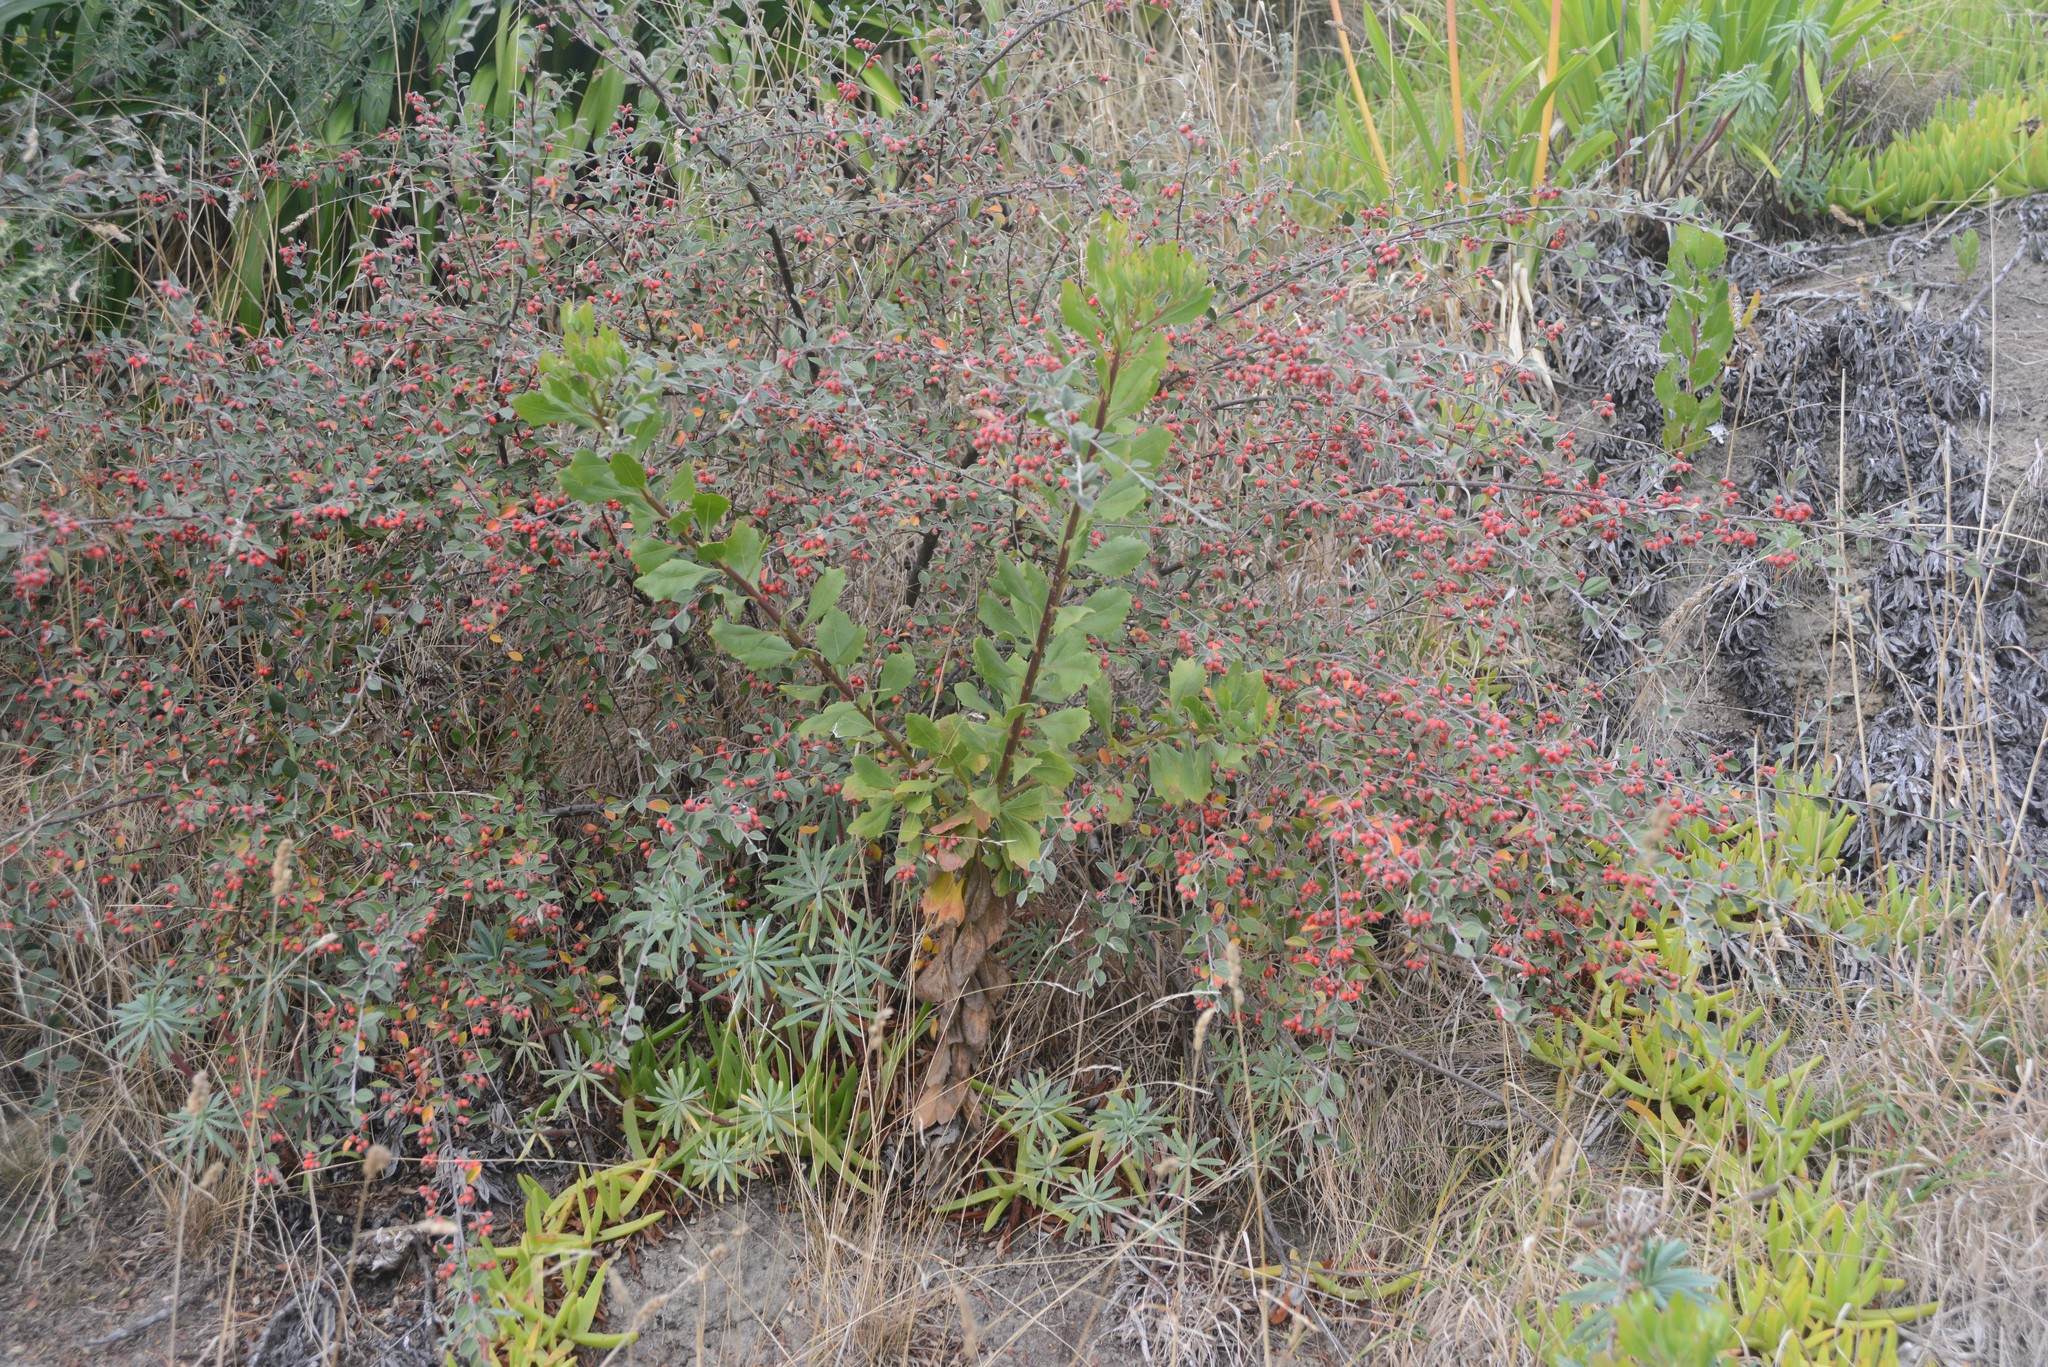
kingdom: Plantae
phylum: Tracheophyta
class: Magnoliopsida
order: Asterales
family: Asteraceae
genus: Osteospermum
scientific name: Osteospermum moniliferum
